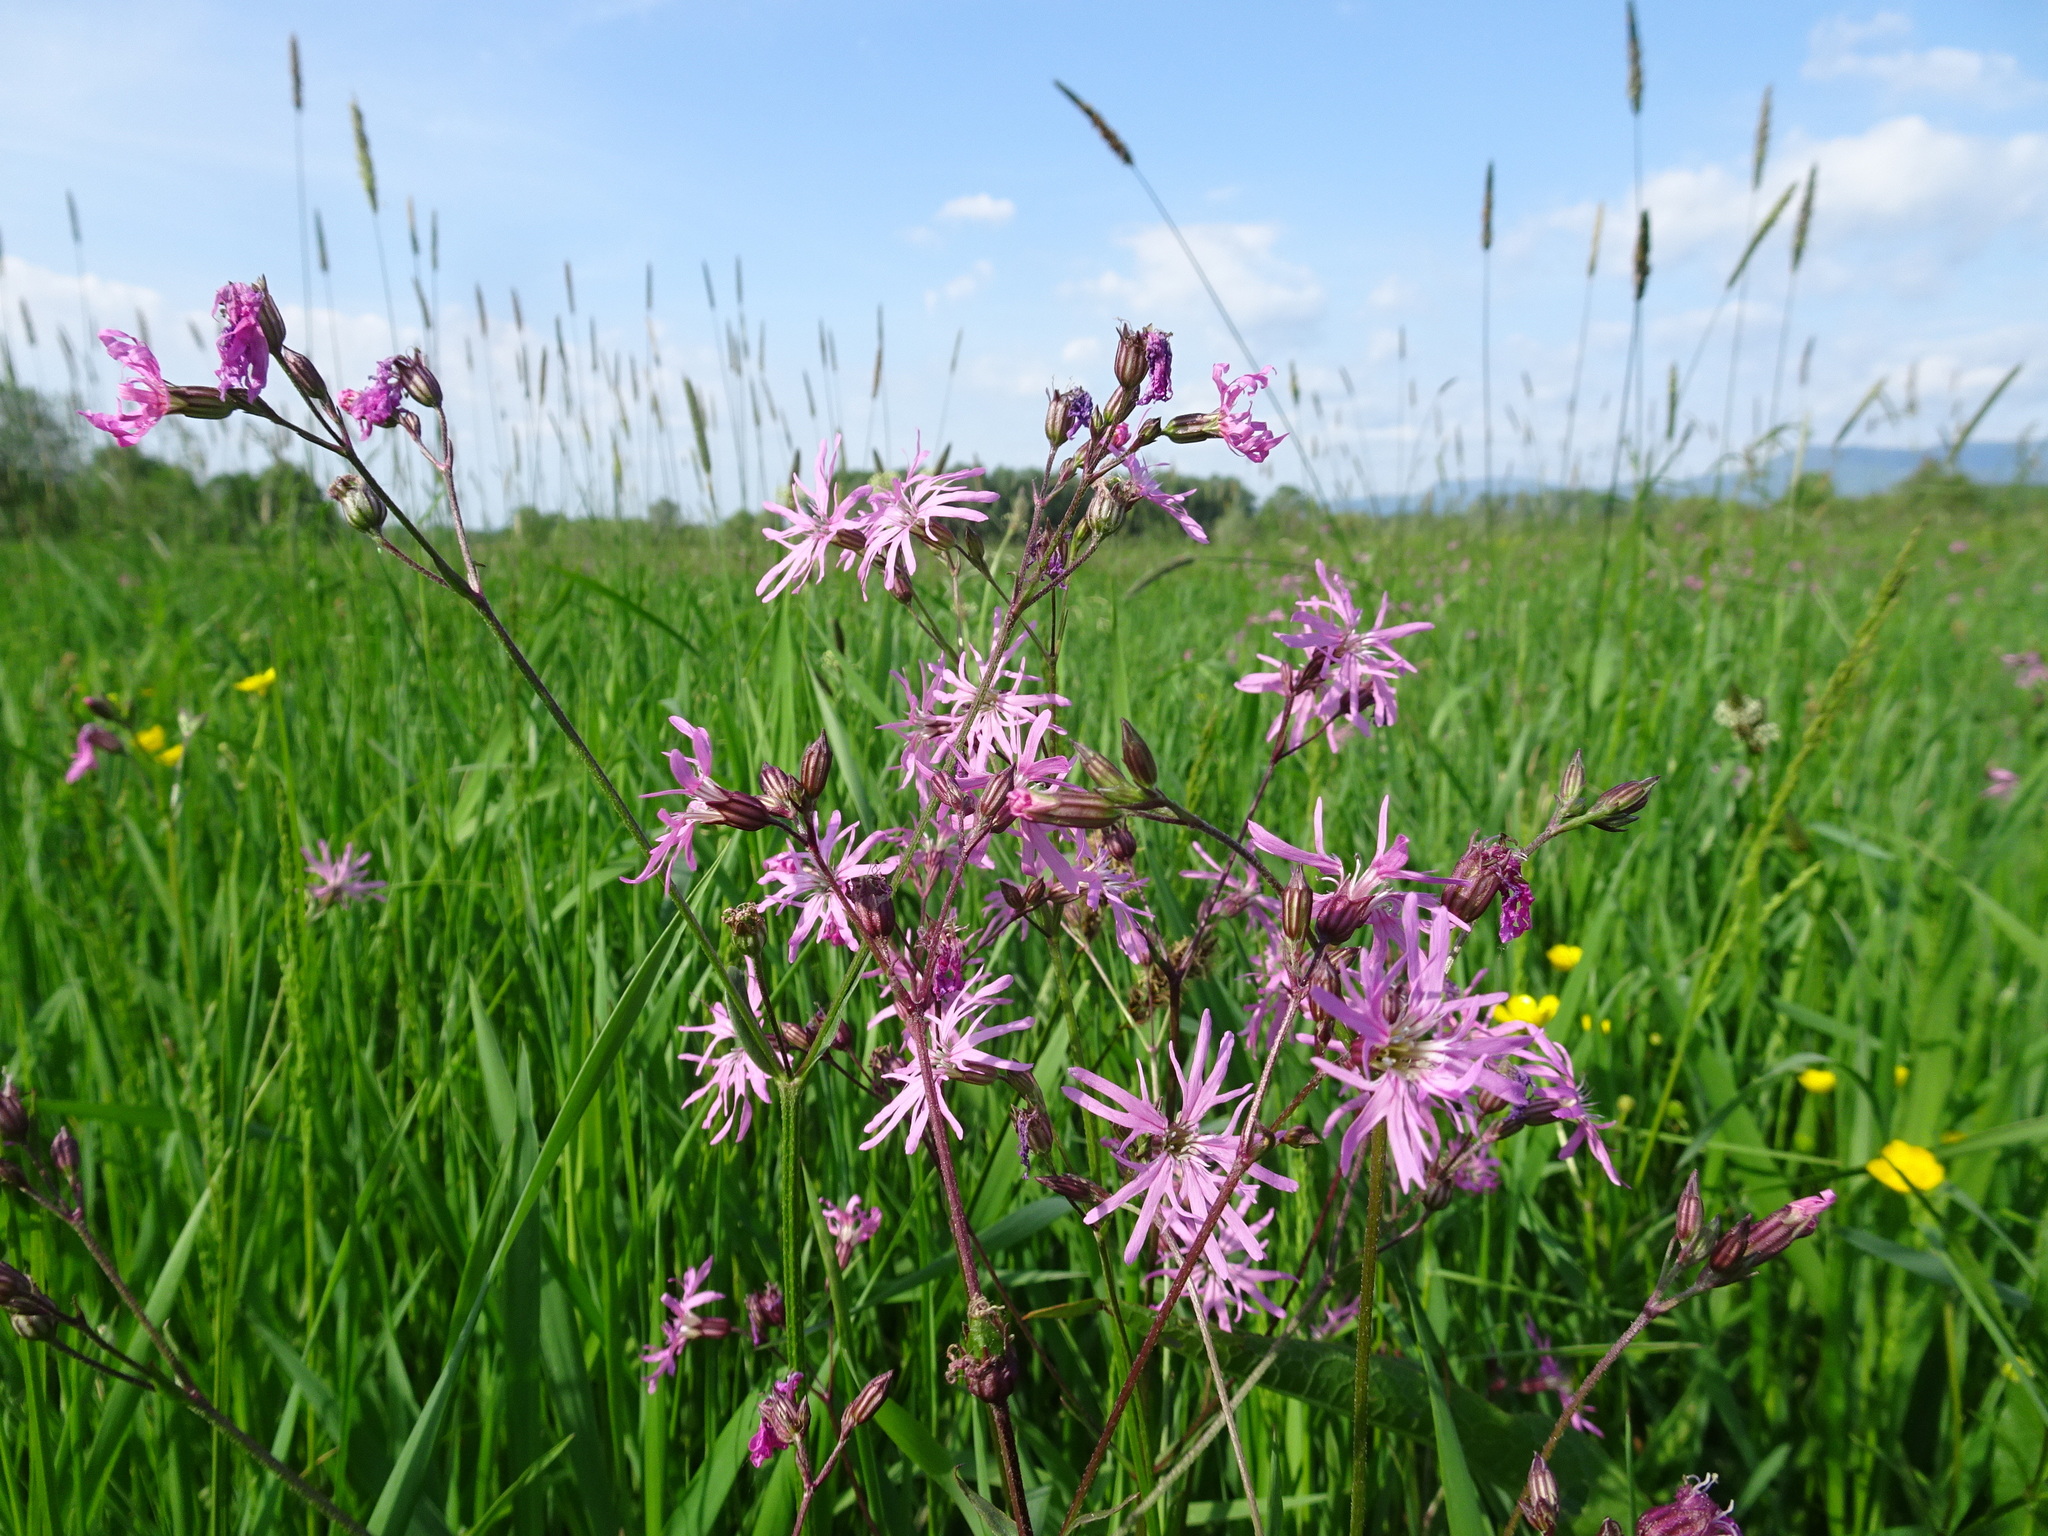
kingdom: Plantae
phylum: Tracheophyta
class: Magnoliopsida
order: Caryophyllales
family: Caryophyllaceae
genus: Silene
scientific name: Silene flos-cuculi
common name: Ragged-robin
